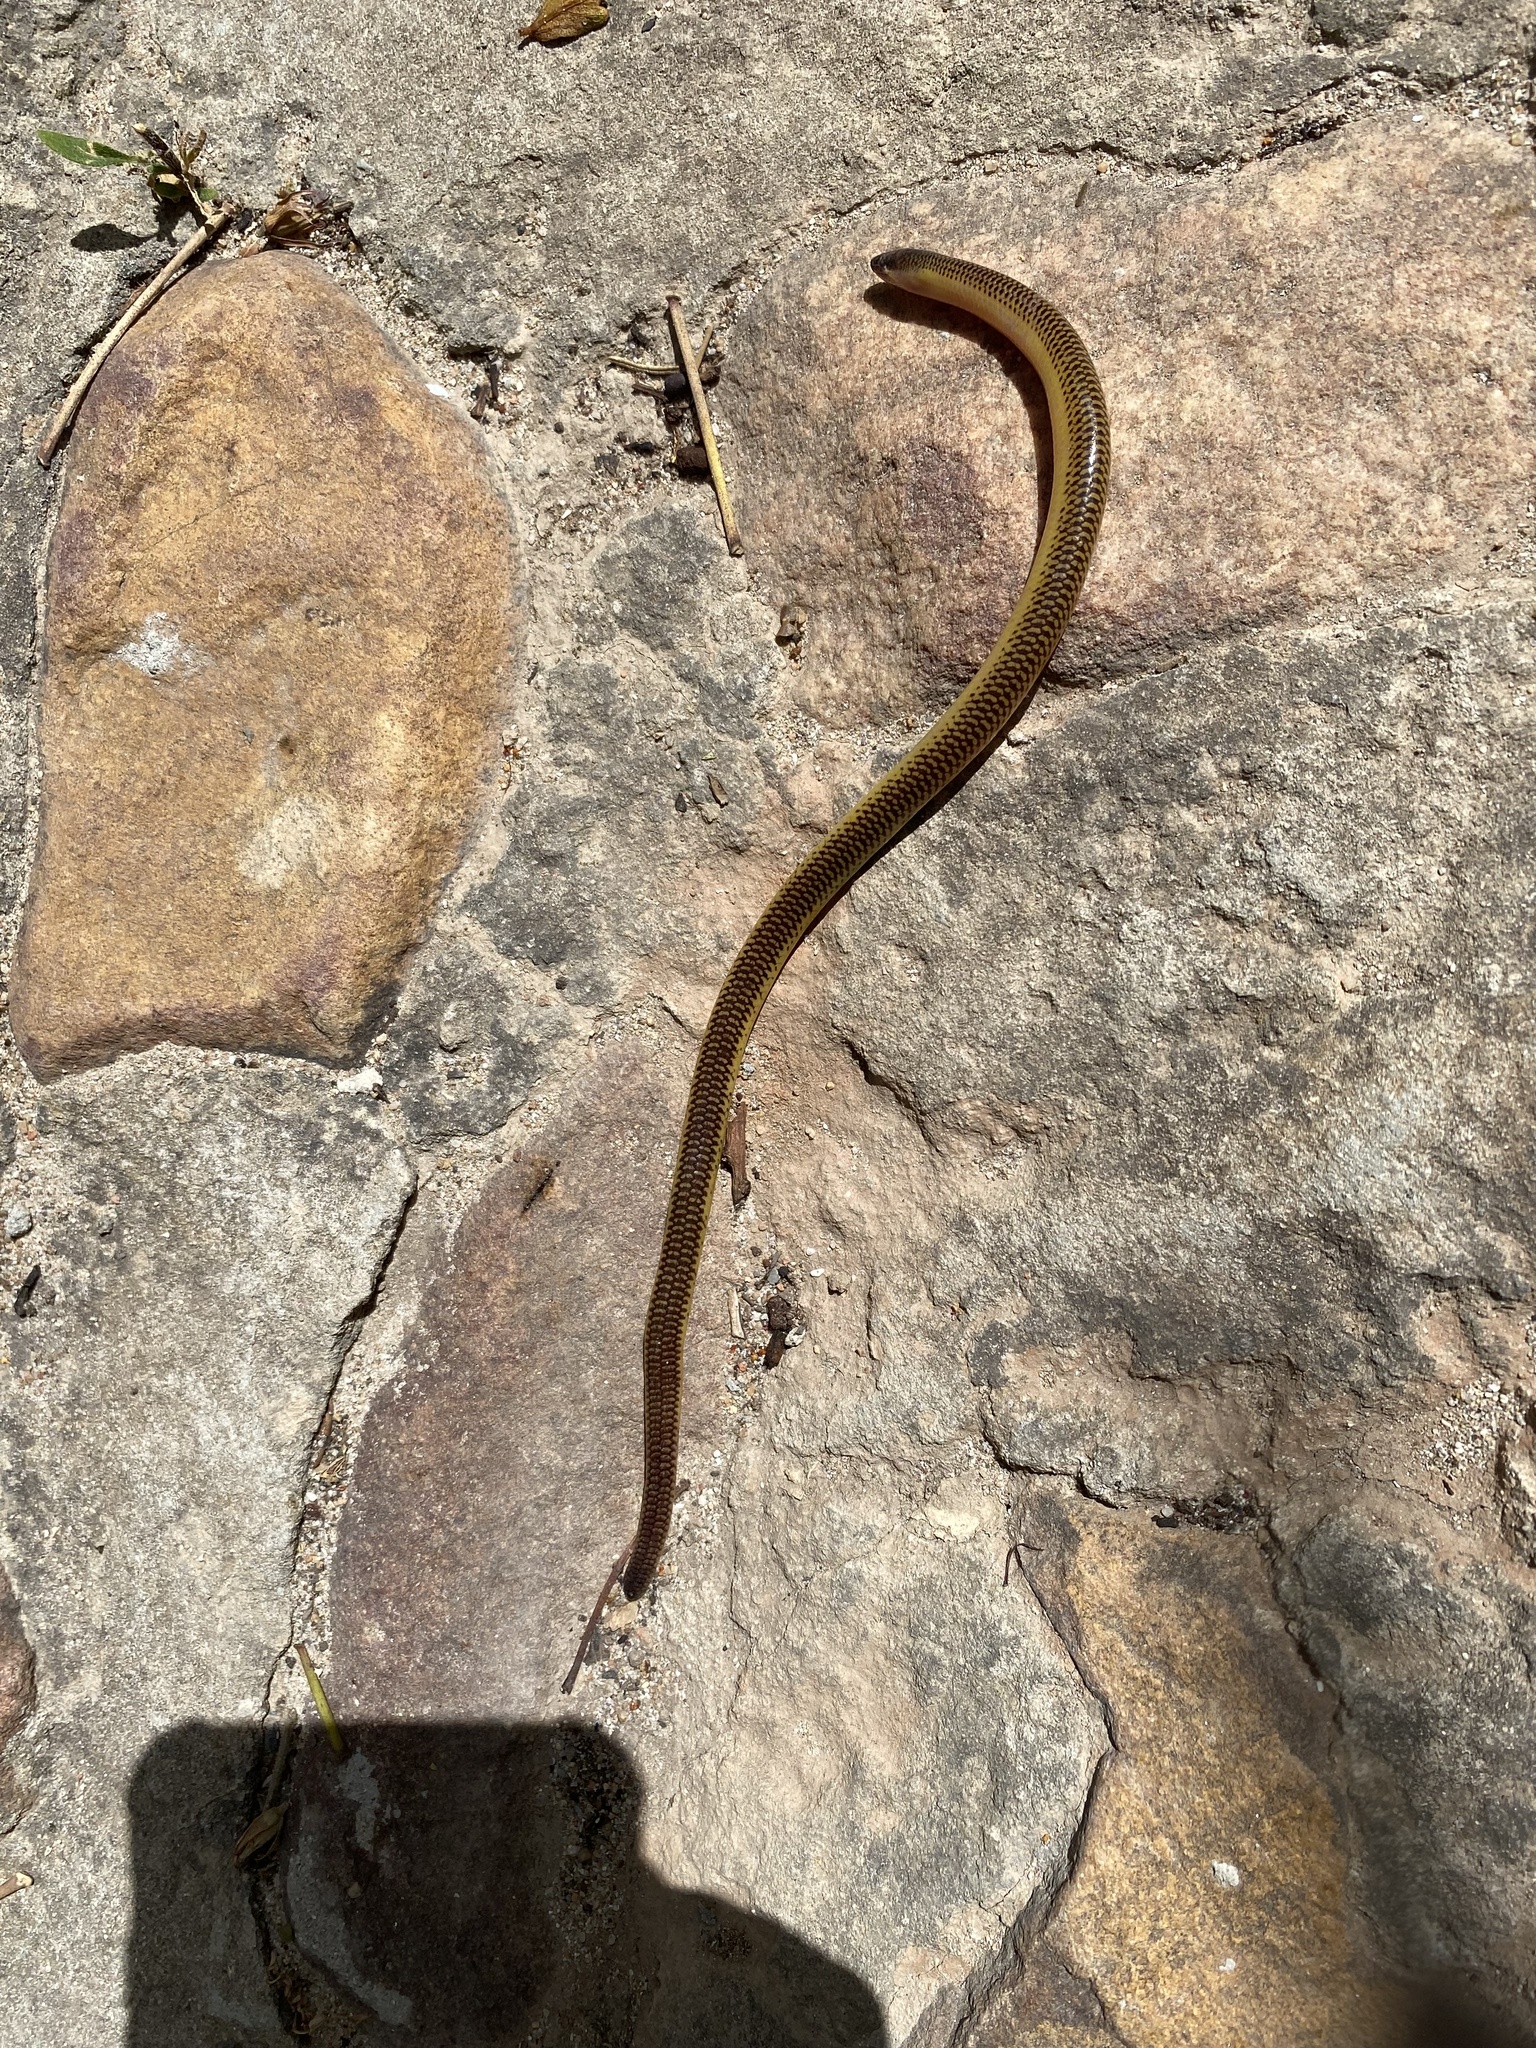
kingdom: Animalia
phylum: Chordata
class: Squamata
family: Scincidae
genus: Acontias
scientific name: Acontias meleagris
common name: Cape legless skink
